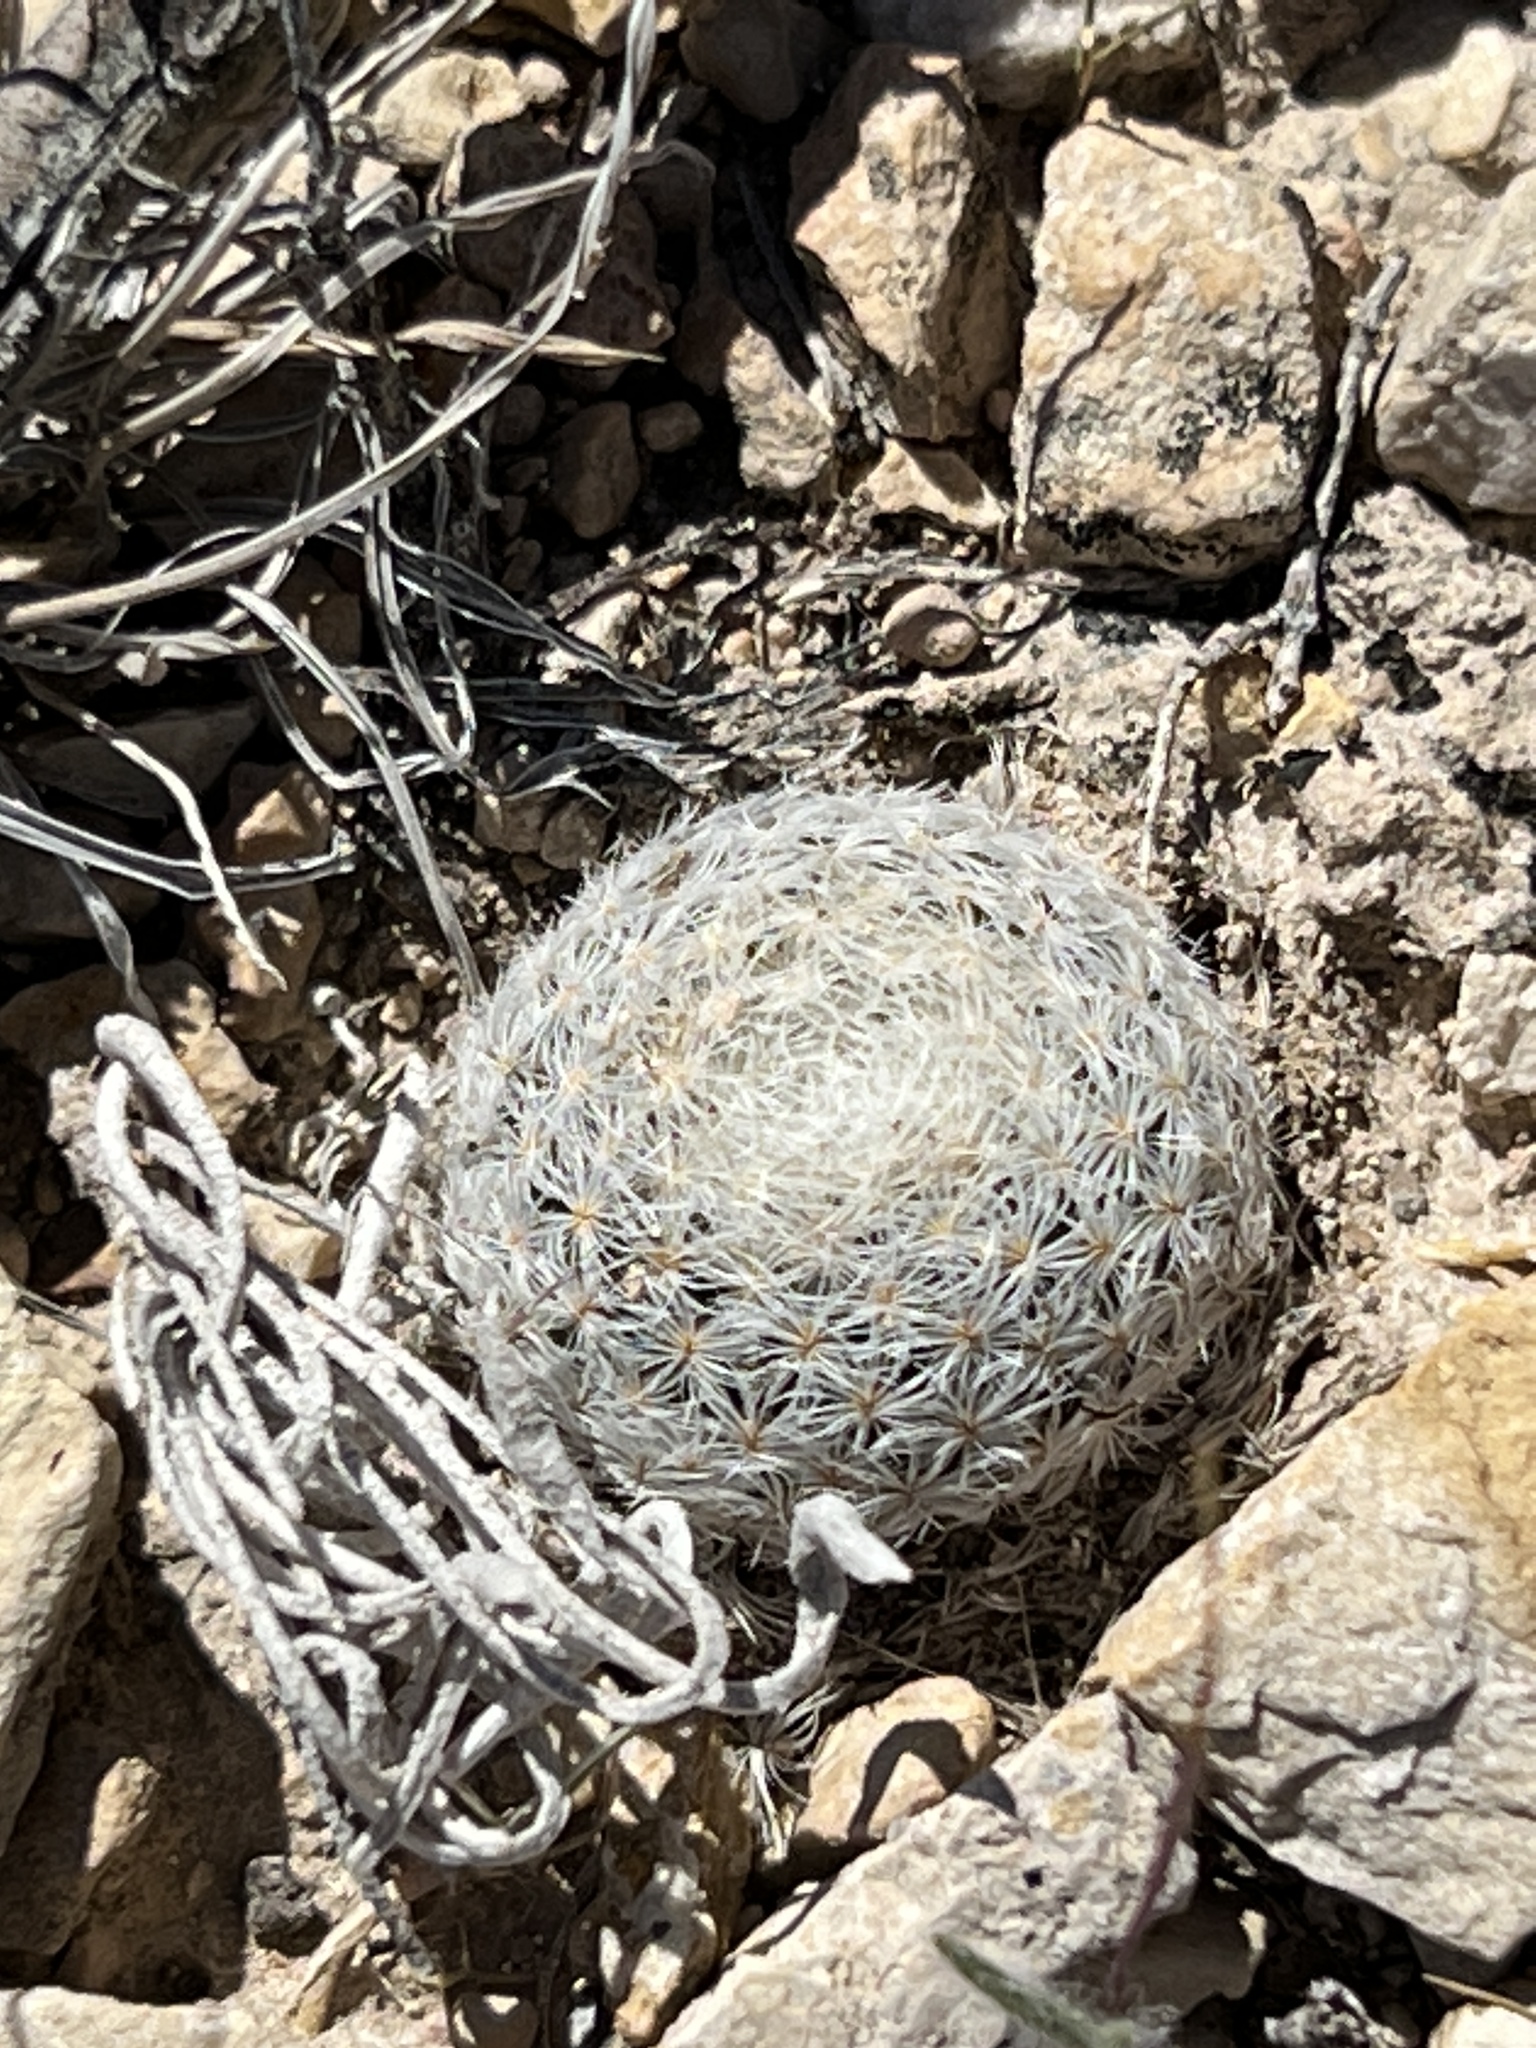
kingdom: Plantae
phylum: Tracheophyta
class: Magnoliopsida
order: Caryophyllales
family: Cactaceae
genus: Mammillaria
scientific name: Mammillaria lasiacantha
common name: Lace-spine nipple cactus
